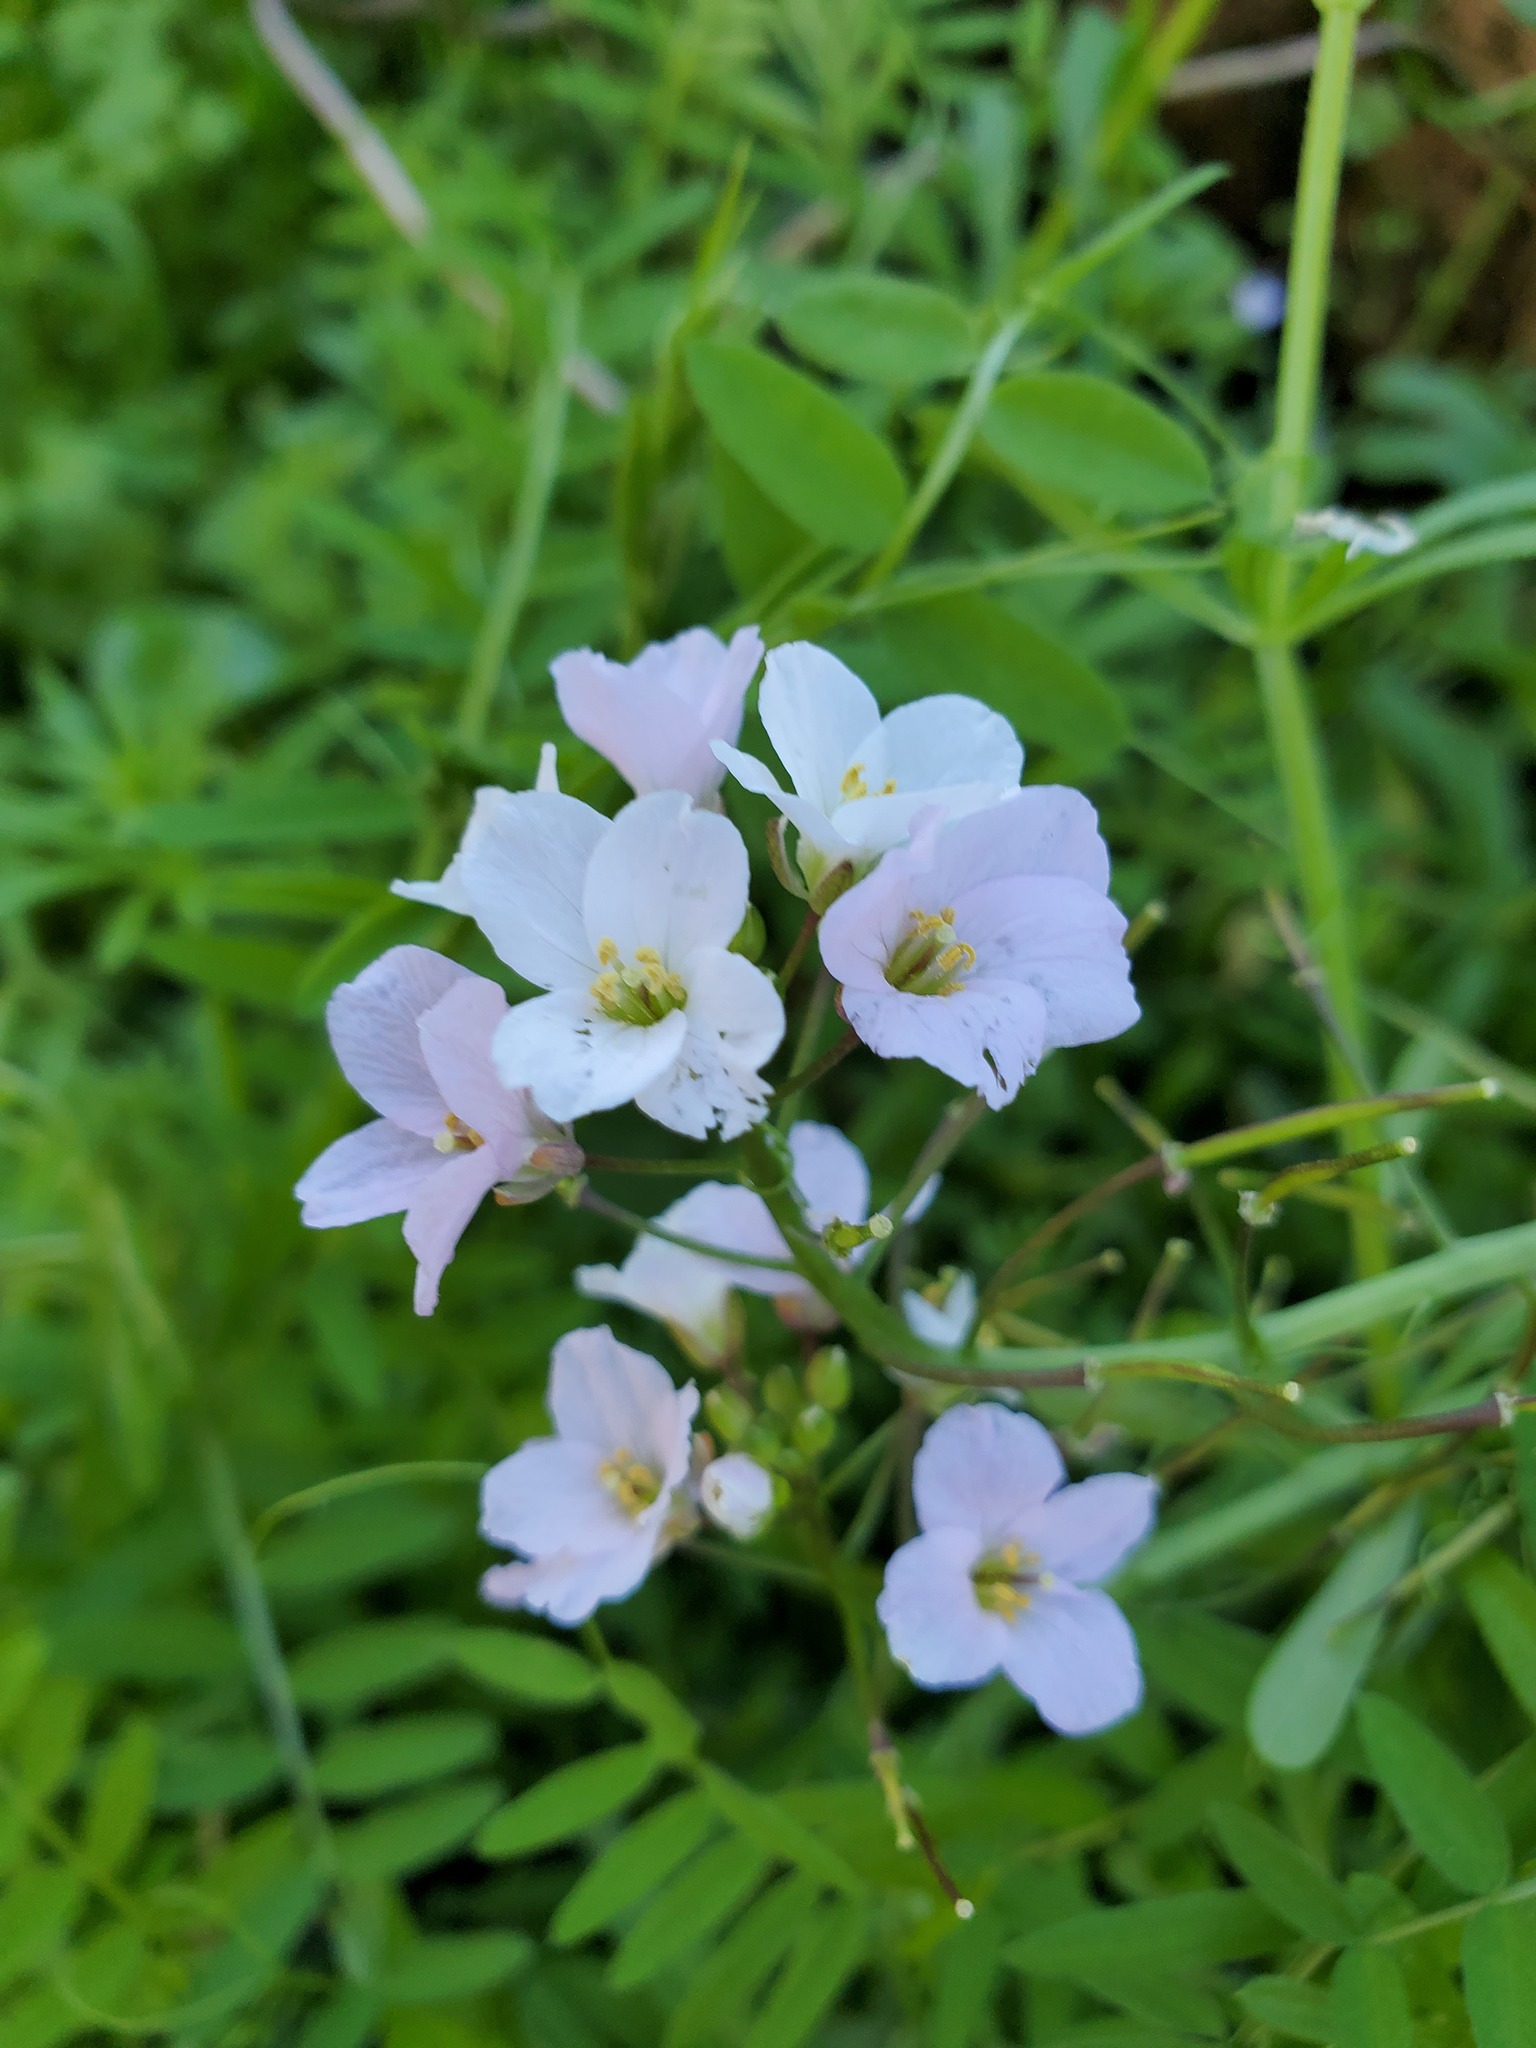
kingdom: Plantae
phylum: Tracheophyta
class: Magnoliopsida
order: Brassicales
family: Brassicaceae
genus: Cardamine
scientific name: Cardamine californica
